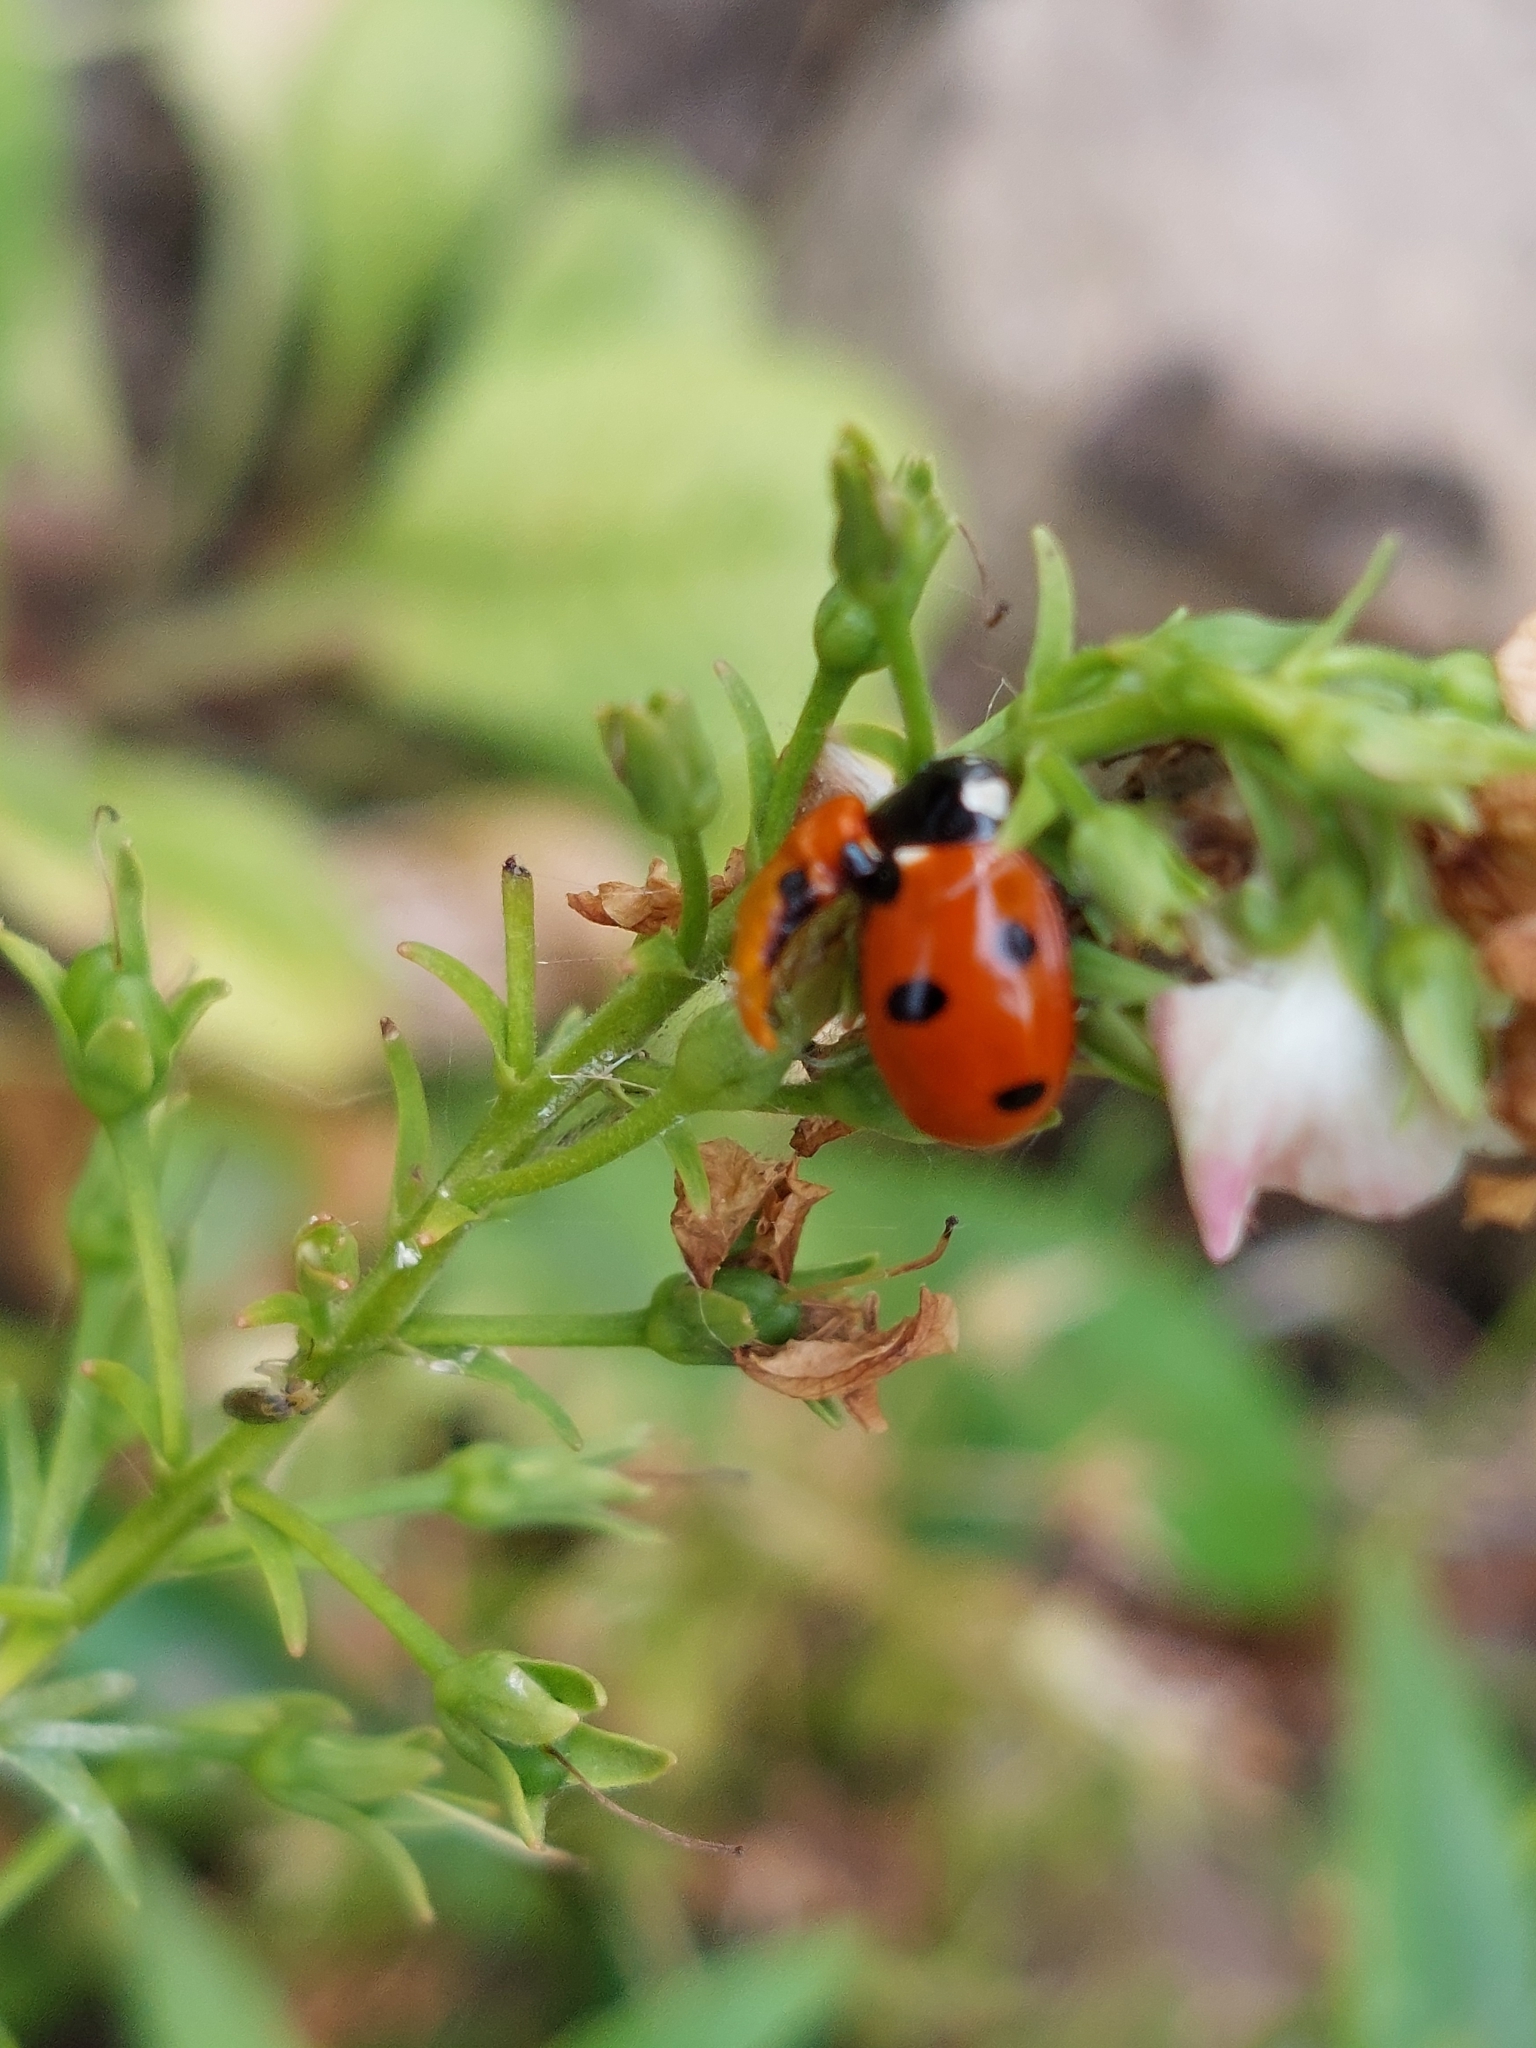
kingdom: Animalia
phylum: Arthropoda
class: Insecta
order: Coleoptera
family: Coccinellidae
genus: Coccinella
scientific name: Coccinella septempunctata
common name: Sevenspotted lady beetle
